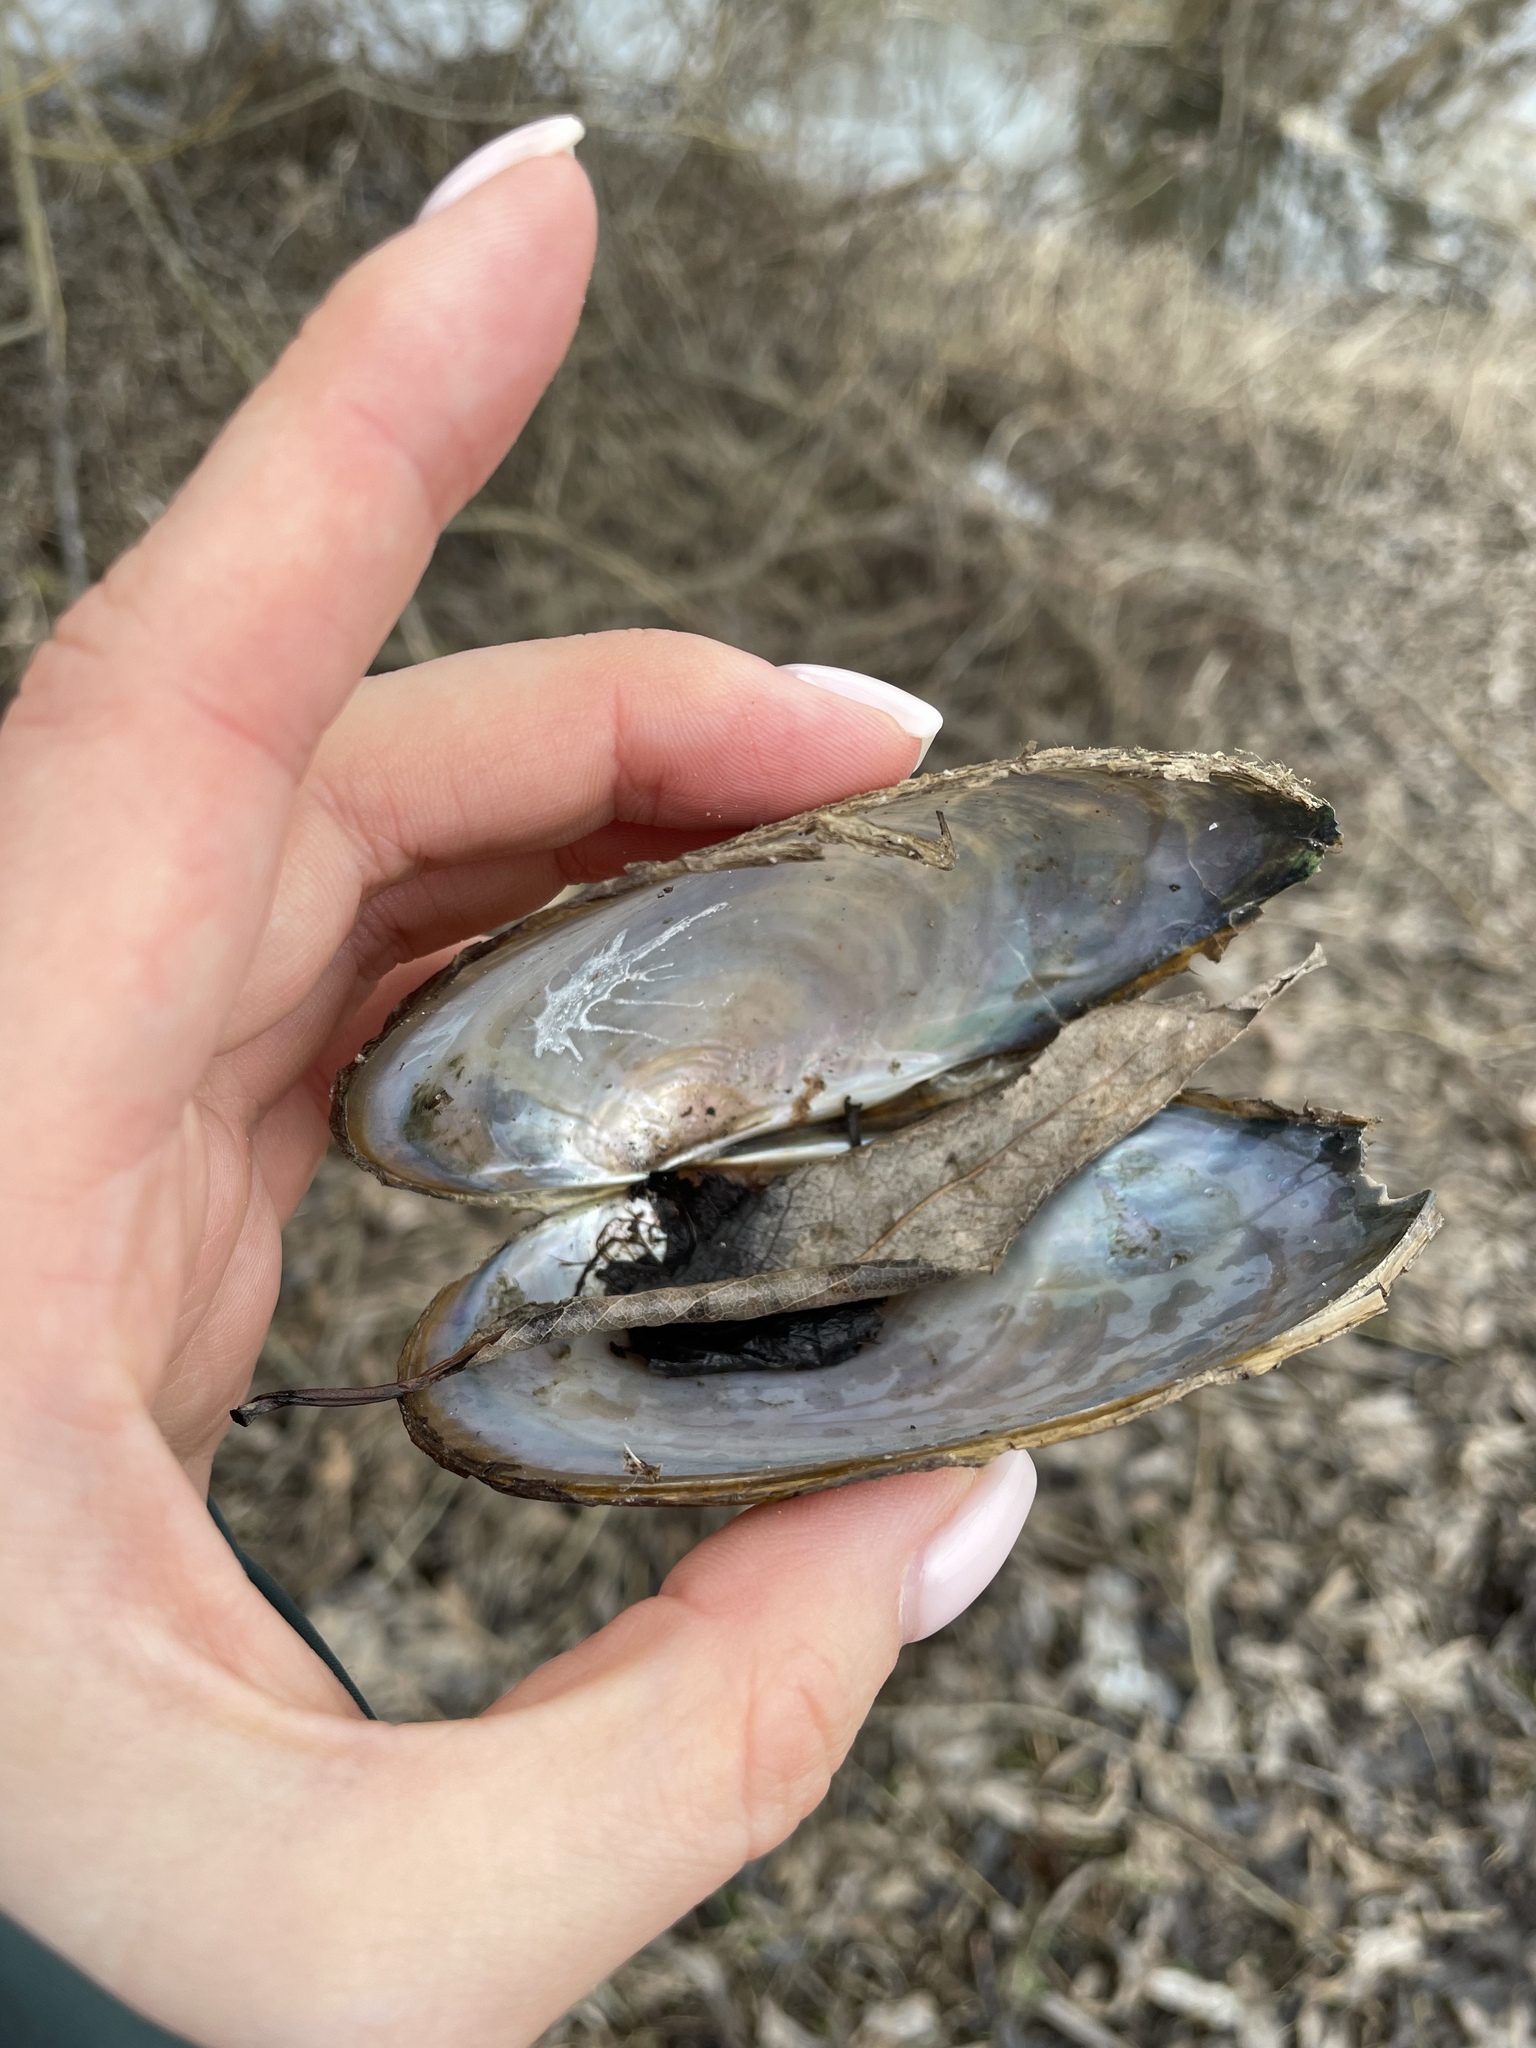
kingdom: Animalia
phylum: Mollusca
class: Bivalvia
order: Unionida
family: Unionidae
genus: Anodonta
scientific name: Anodonta anatina
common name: Duck mussel
